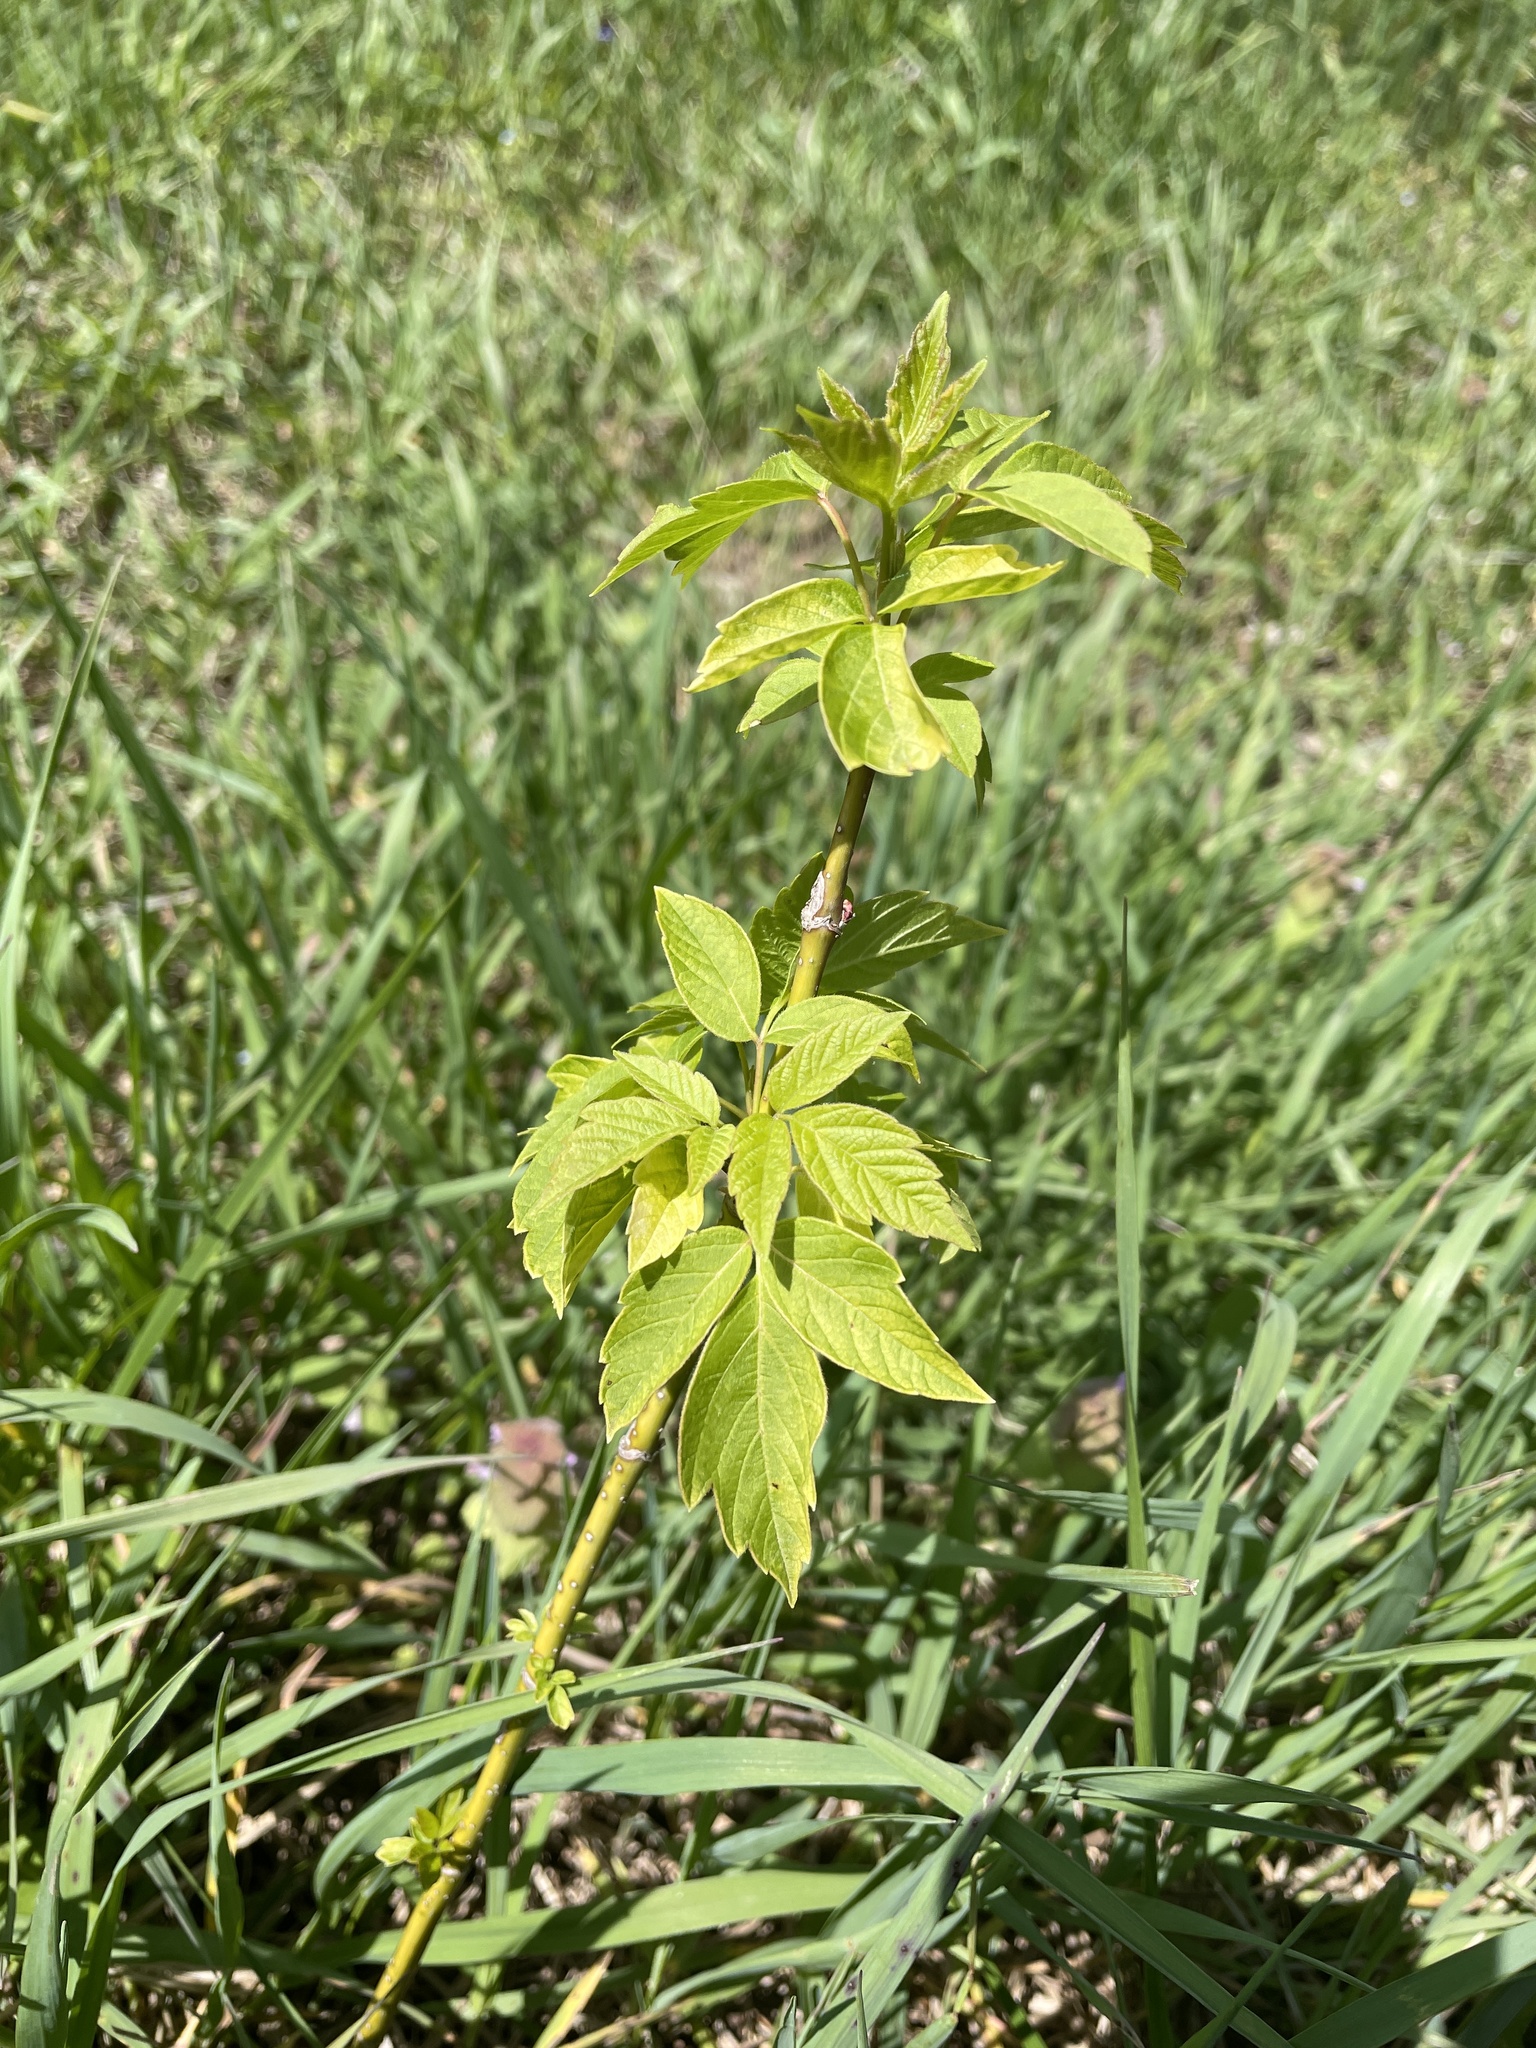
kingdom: Plantae
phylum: Tracheophyta
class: Magnoliopsida
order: Sapindales
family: Sapindaceae
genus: Acer
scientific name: Acer negundo
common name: Ashleaf maple
